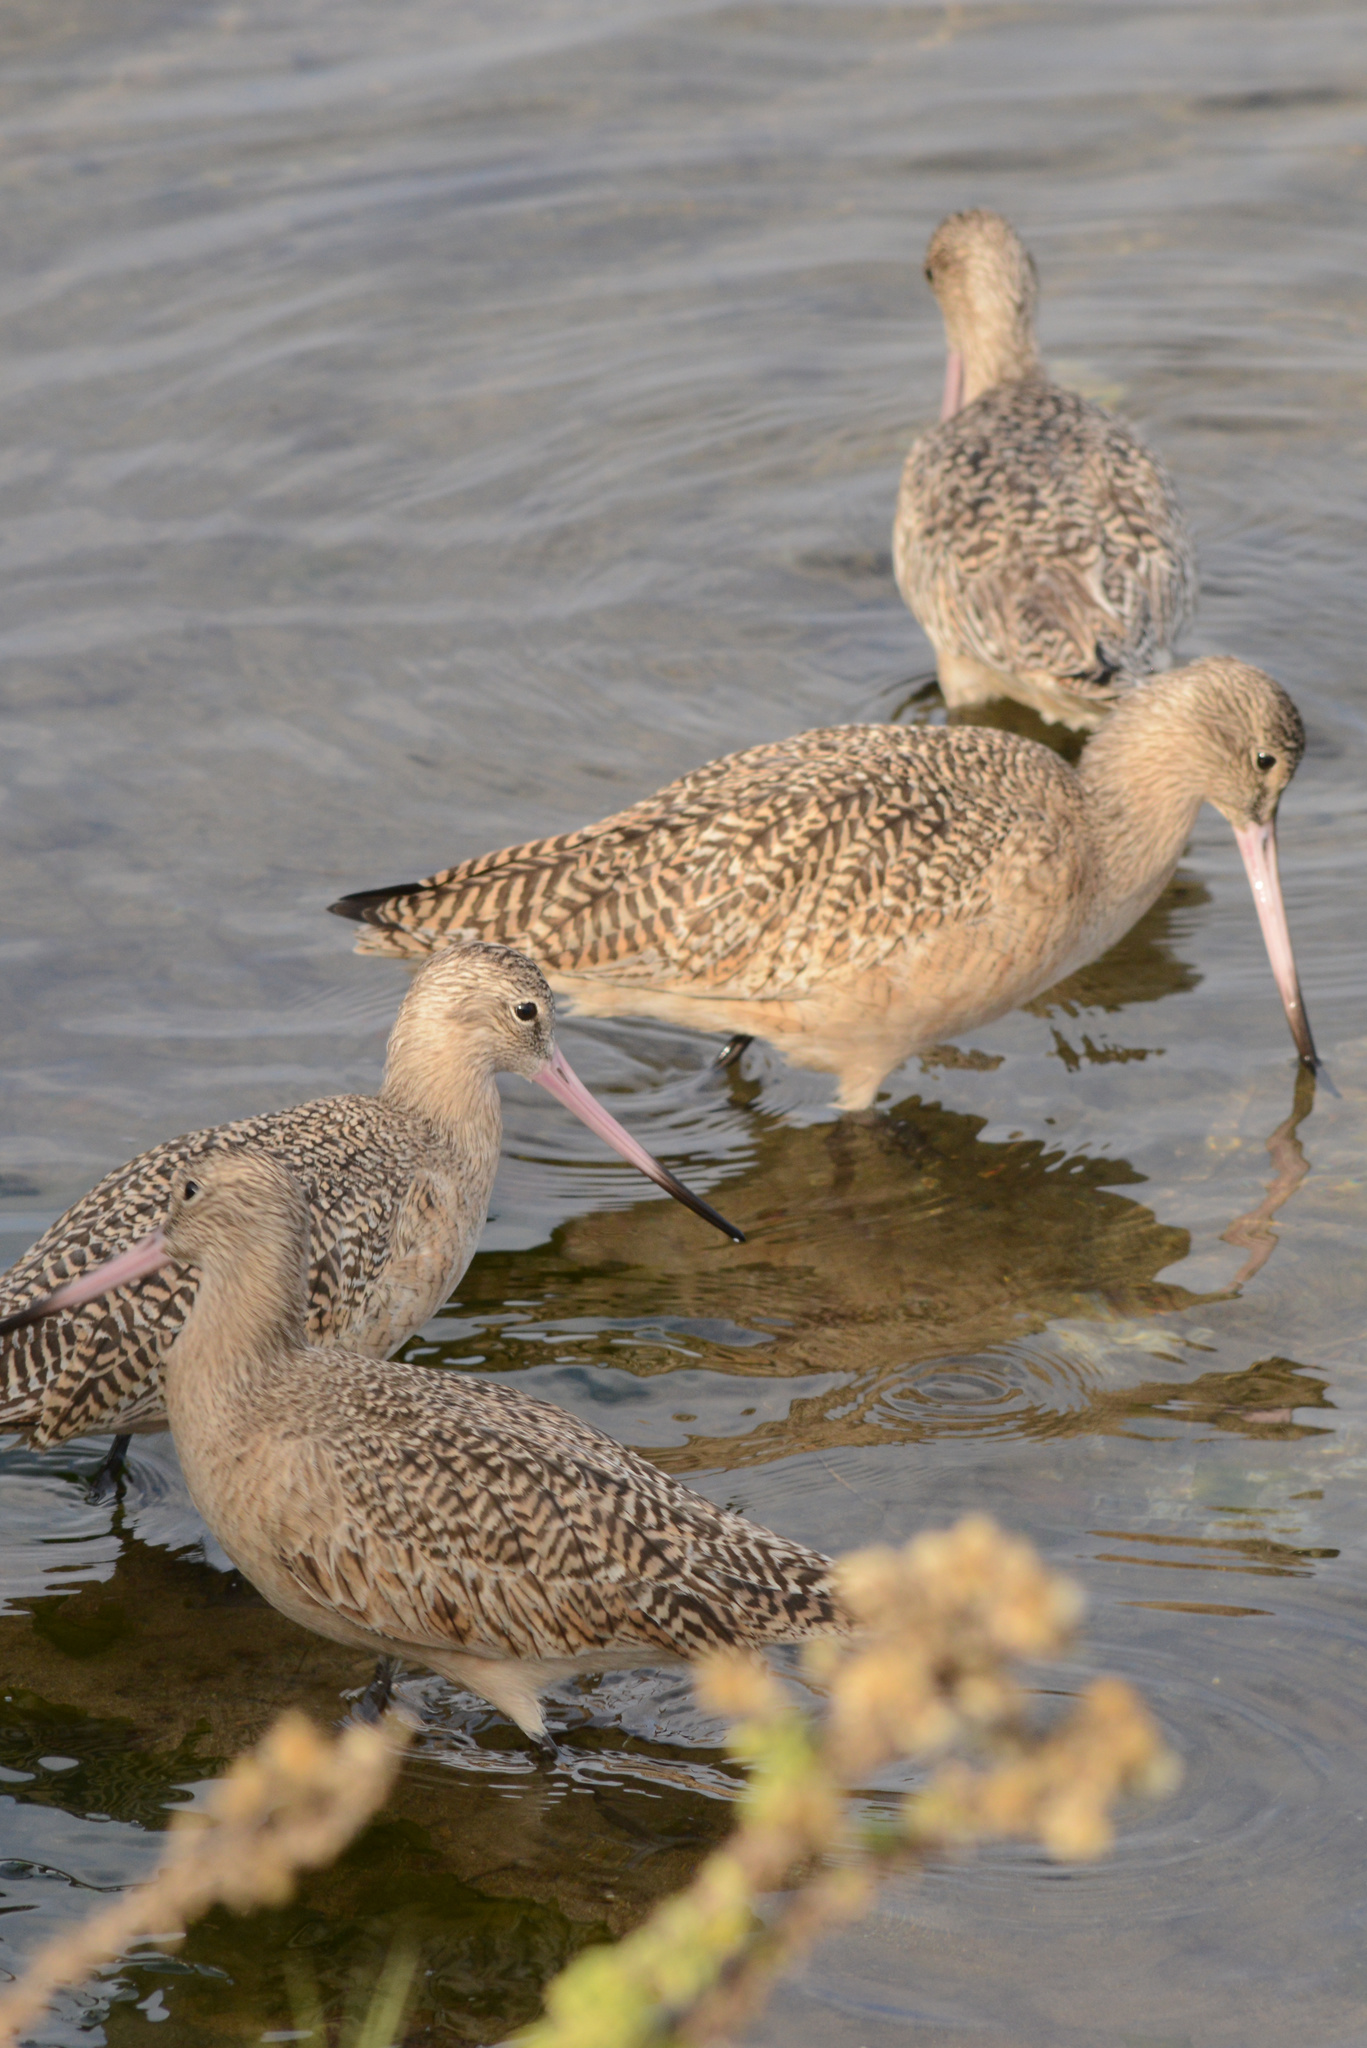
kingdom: Animalia
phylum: Chordata
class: Aves
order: Charadriiformes
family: Scolopacidae
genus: Limosa
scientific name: Limosa fedoa
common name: Marbled godwit
